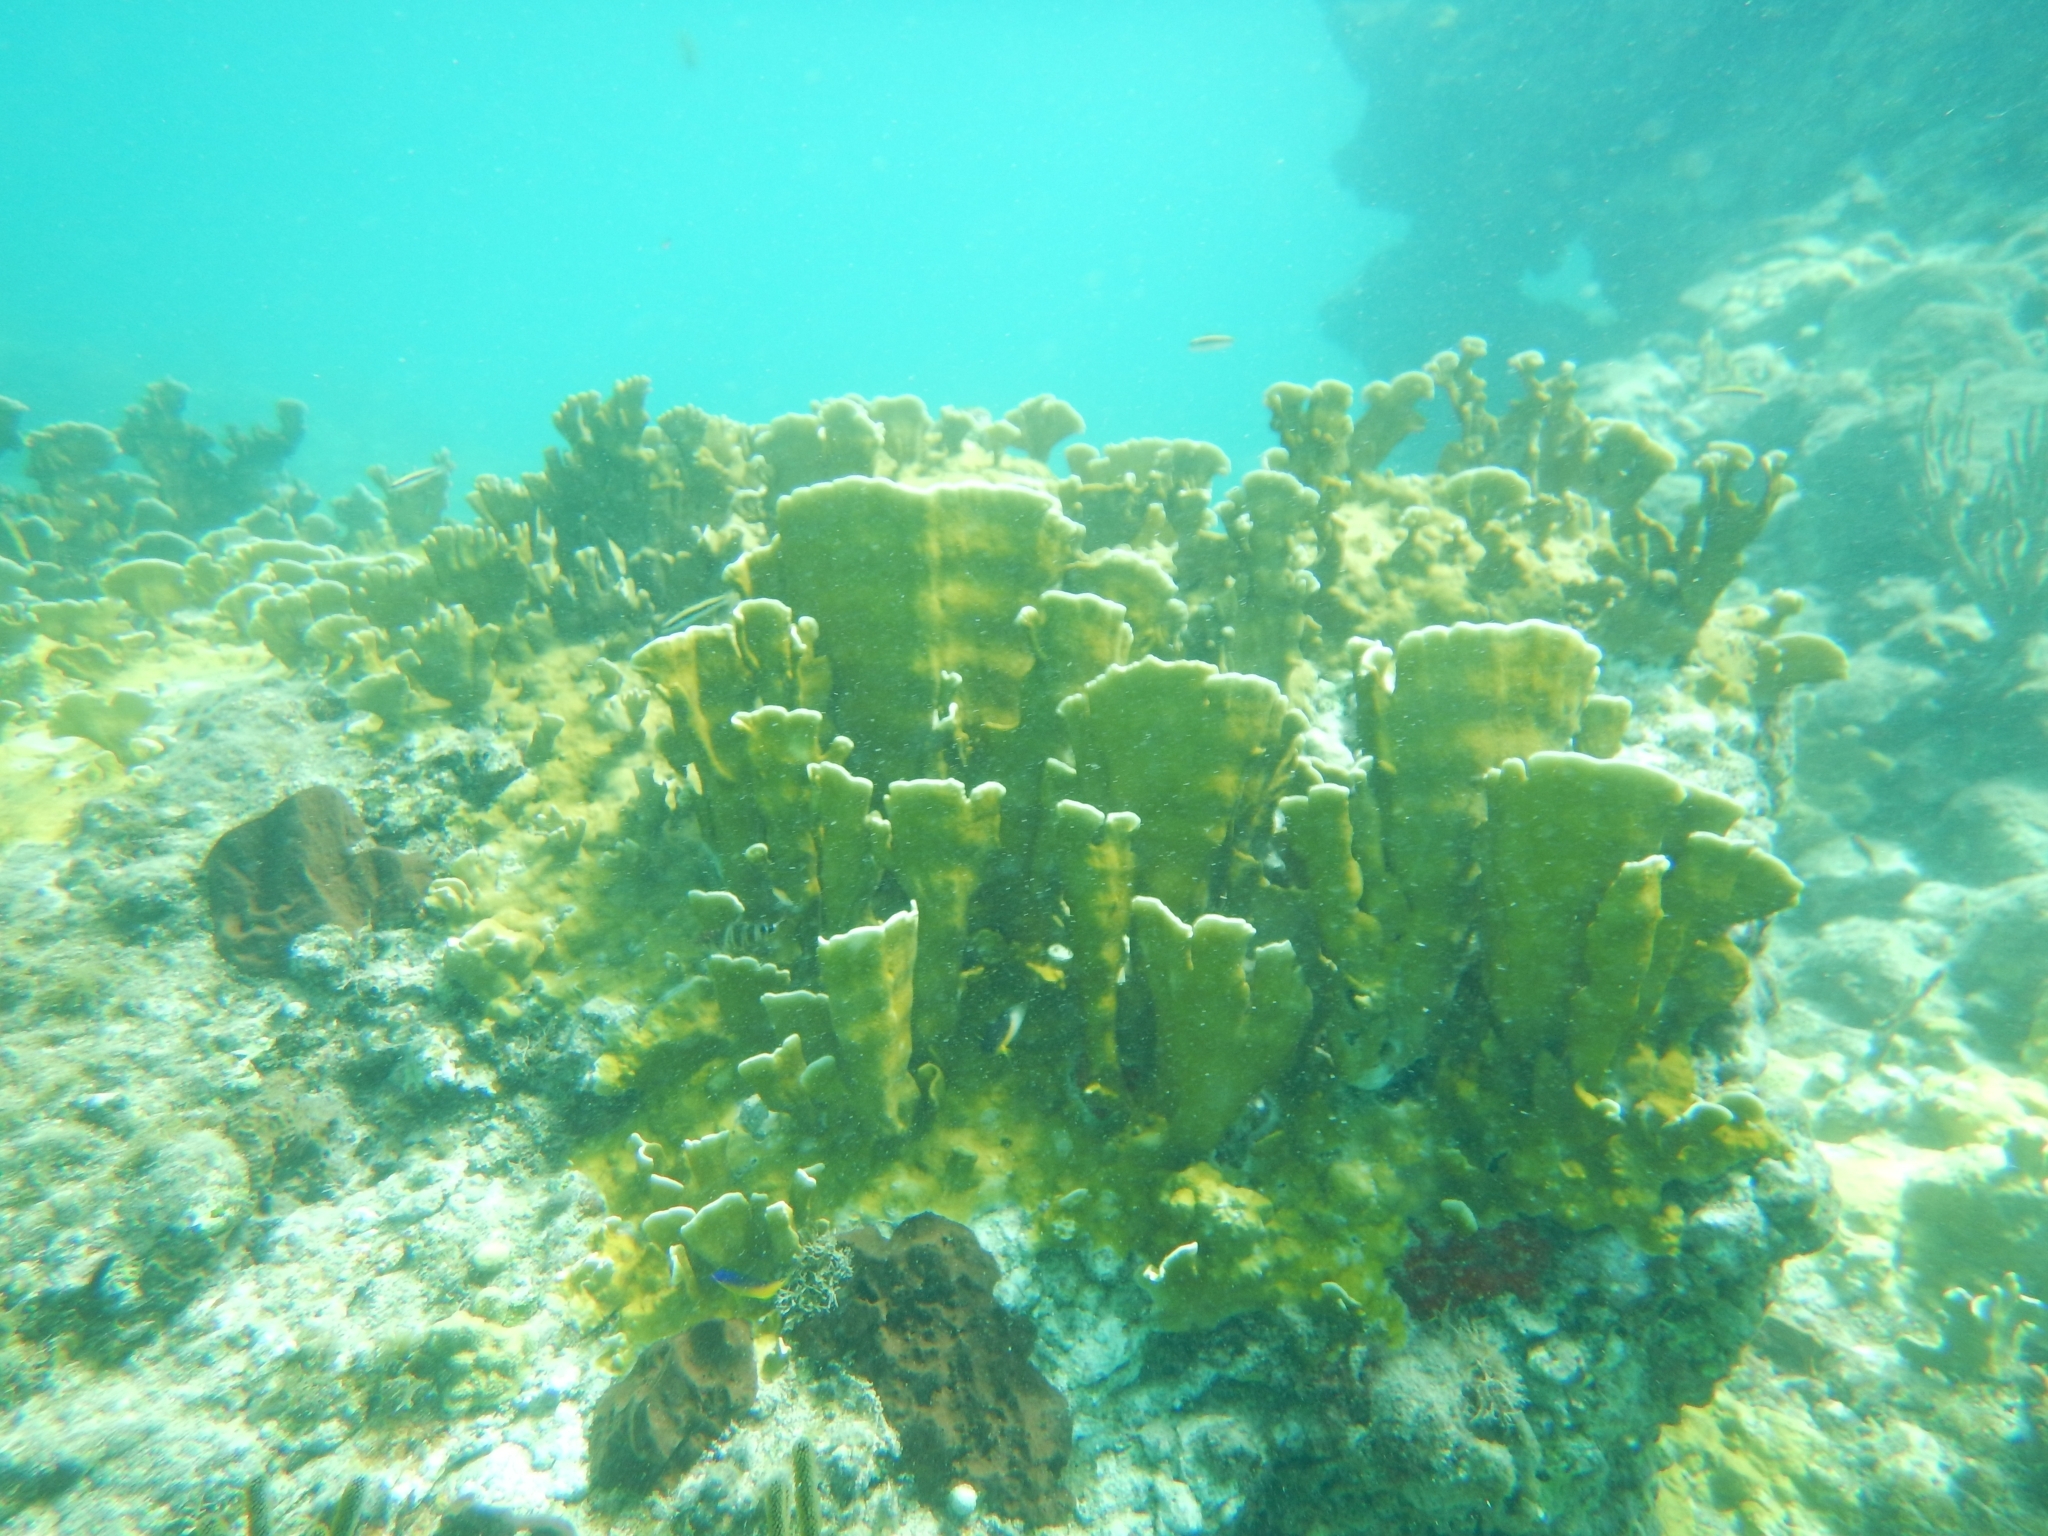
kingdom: Animalia
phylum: Cnidaria
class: Hydrozoa
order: Anthoathecata
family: Milleporidae
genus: Millepora
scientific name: Millepora complanata
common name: Bladed fire coral
